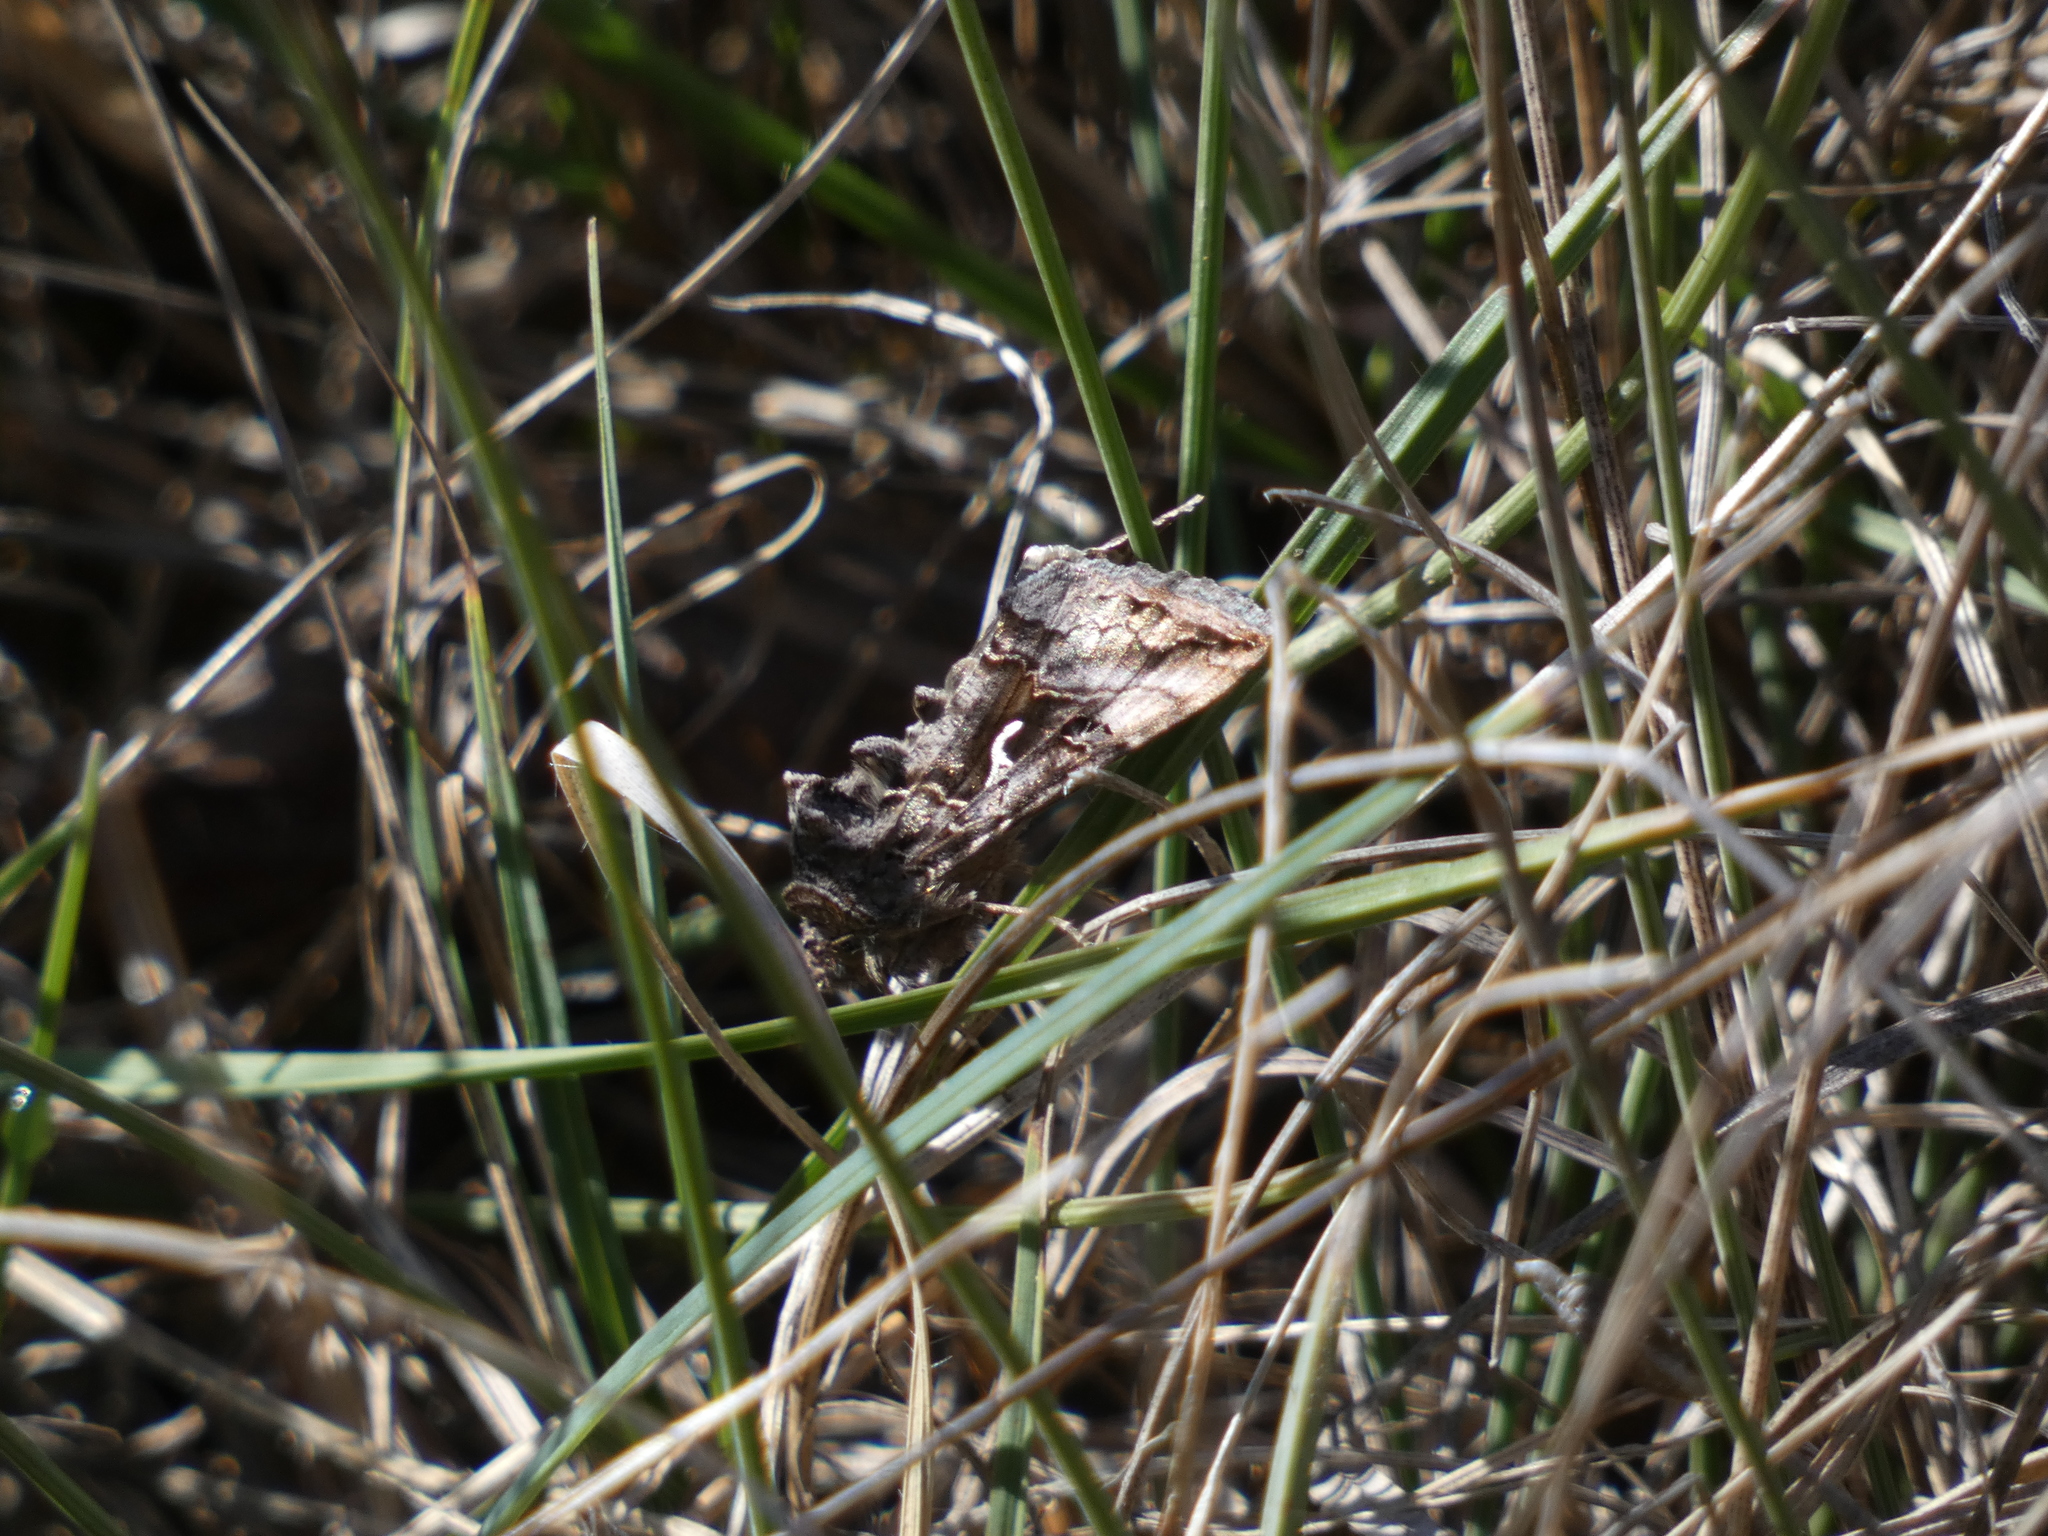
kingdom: Animalia
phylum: Arthropoda
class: Insecta
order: Lepidoptera
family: Noctuidae
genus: Autographa
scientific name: Autographa gamma
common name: Silver y
